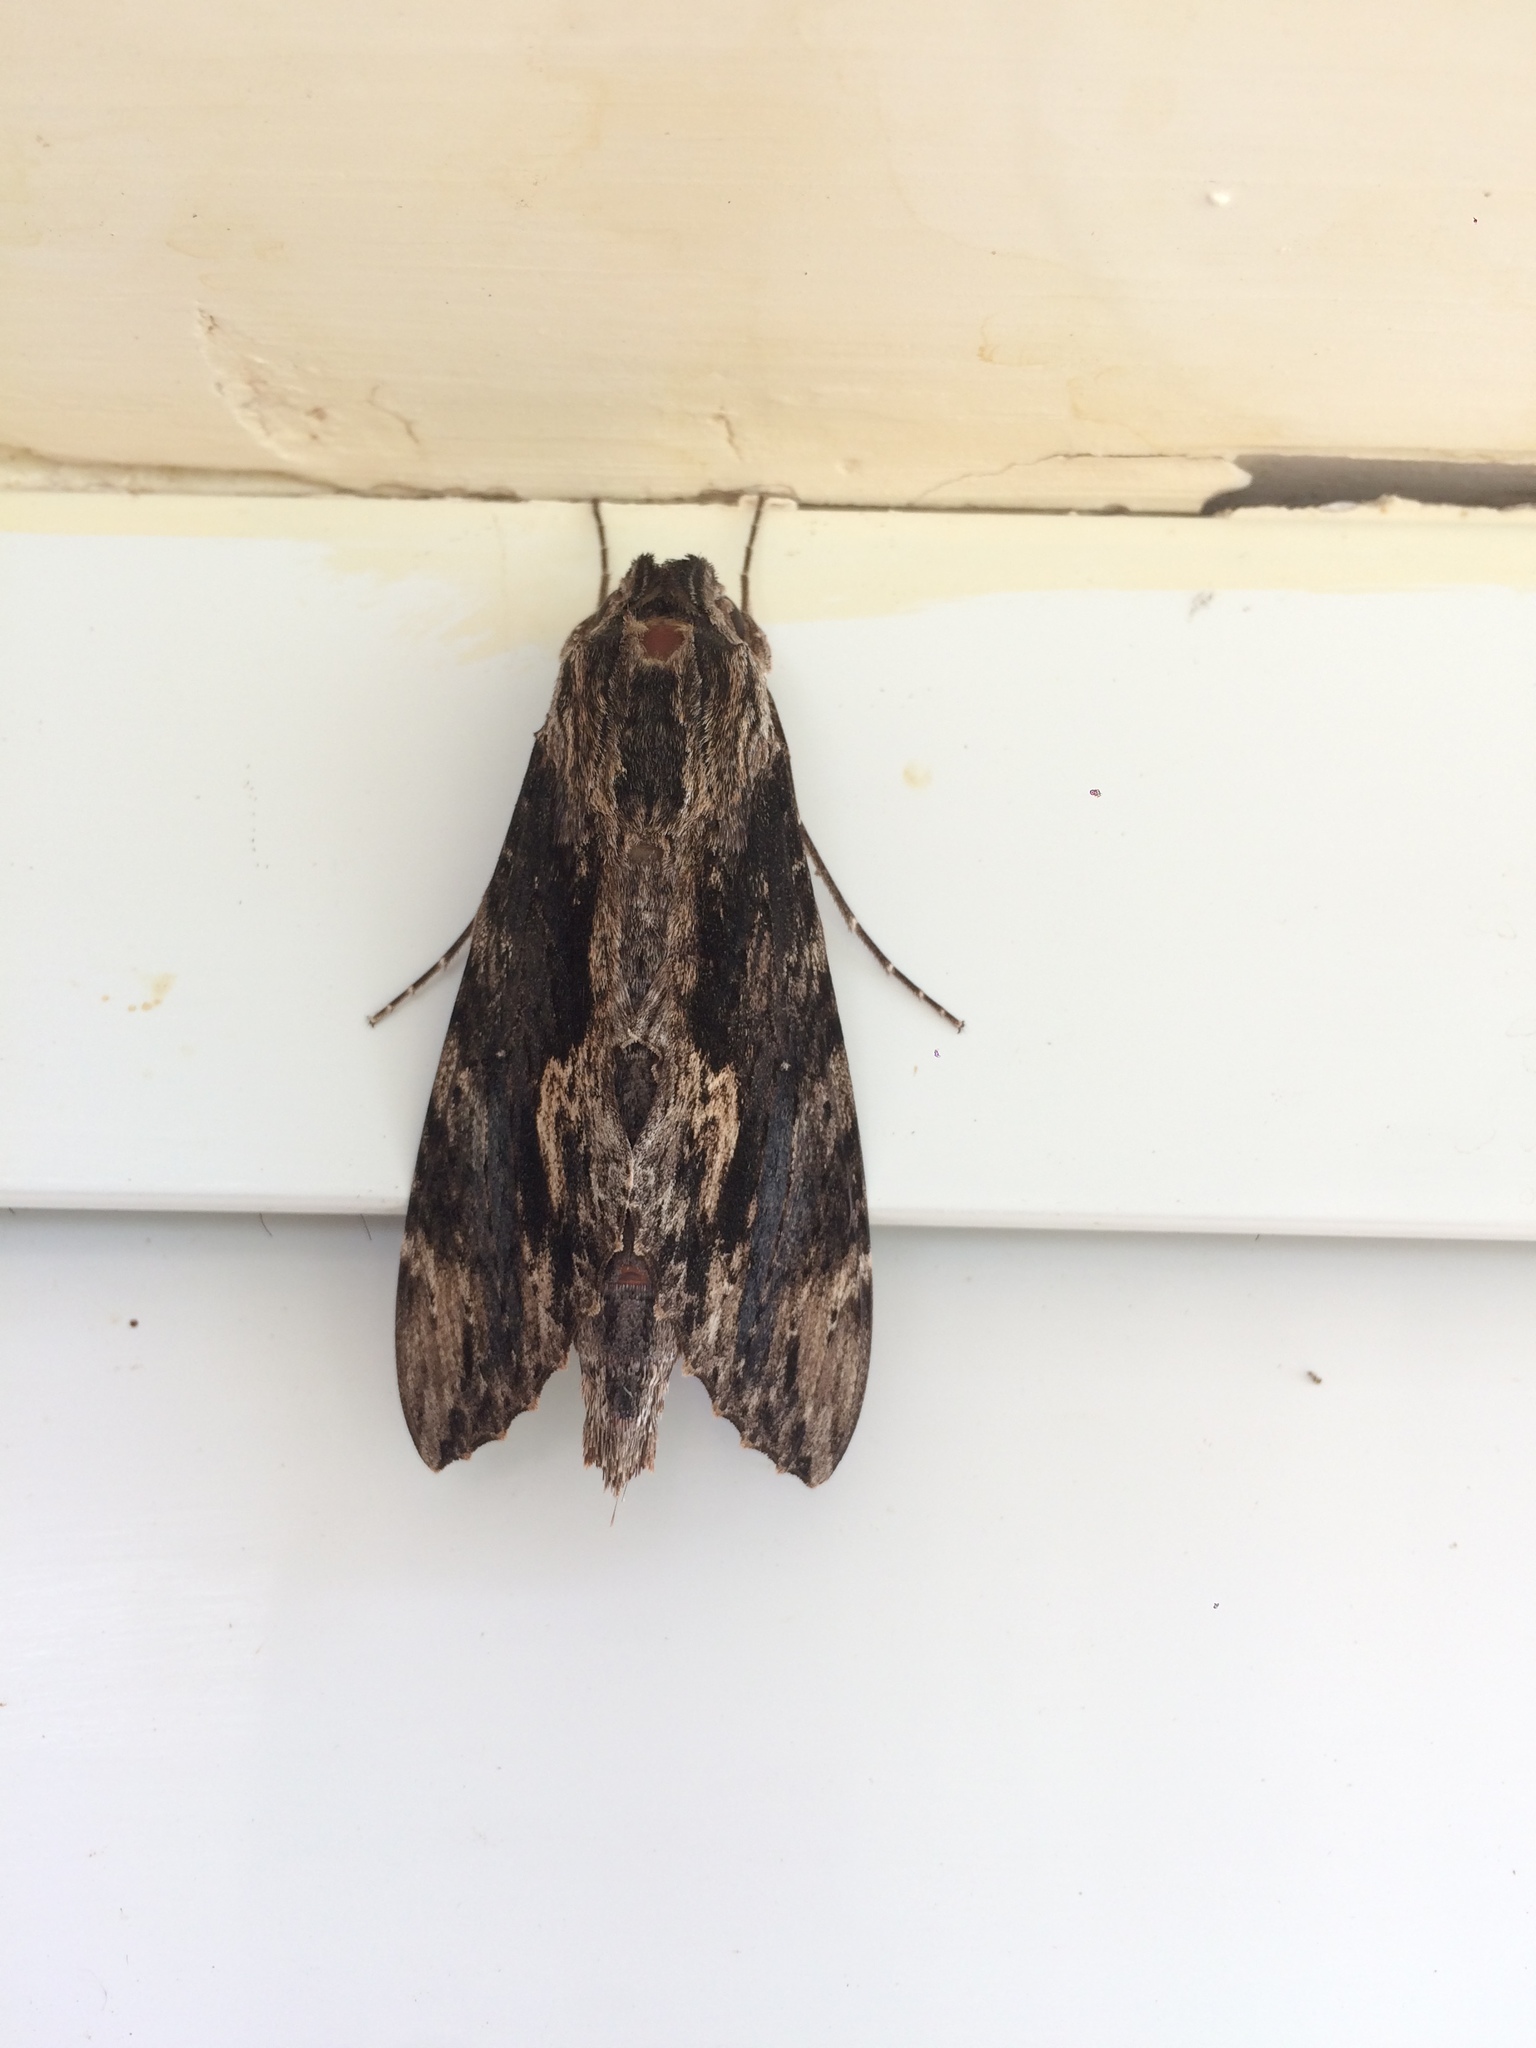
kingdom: Animalia
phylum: Arthropoda
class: Insecta
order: Lepidoptera
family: Sphingidae
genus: Erinnyis
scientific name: Erinnyis oenotrus
